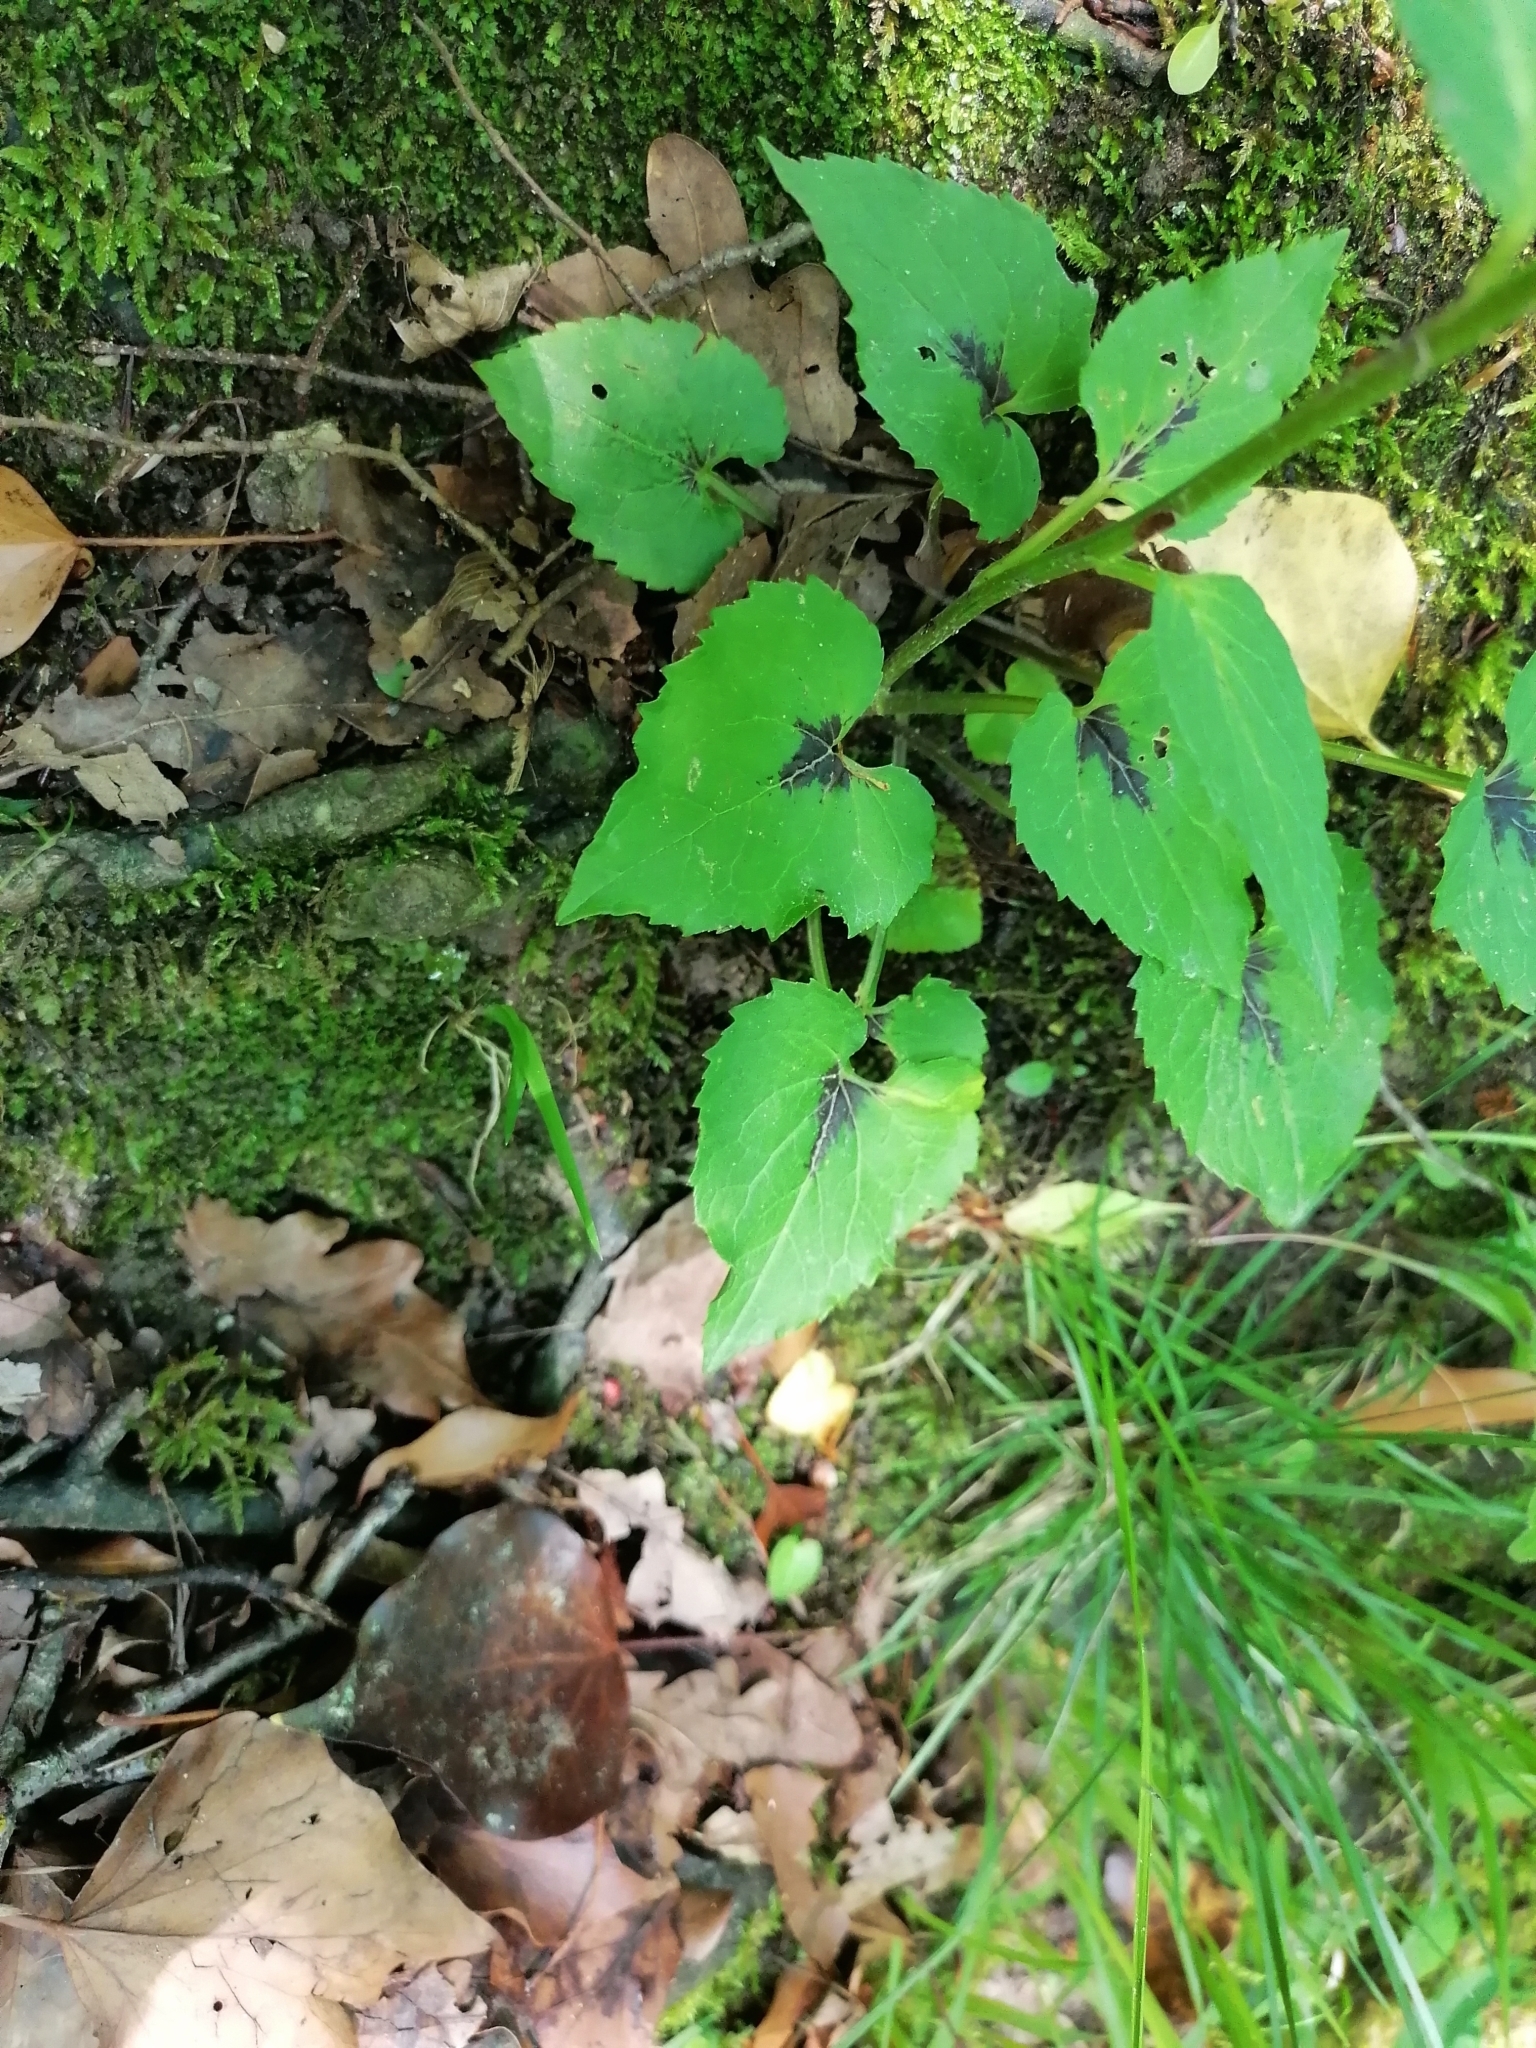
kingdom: Plantae
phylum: Tracheophyta
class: Magnoliopsida
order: Asterales
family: Campanulaceae
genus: Phyteuma
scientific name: Phyteuma spicatum
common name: Spiked rampion
